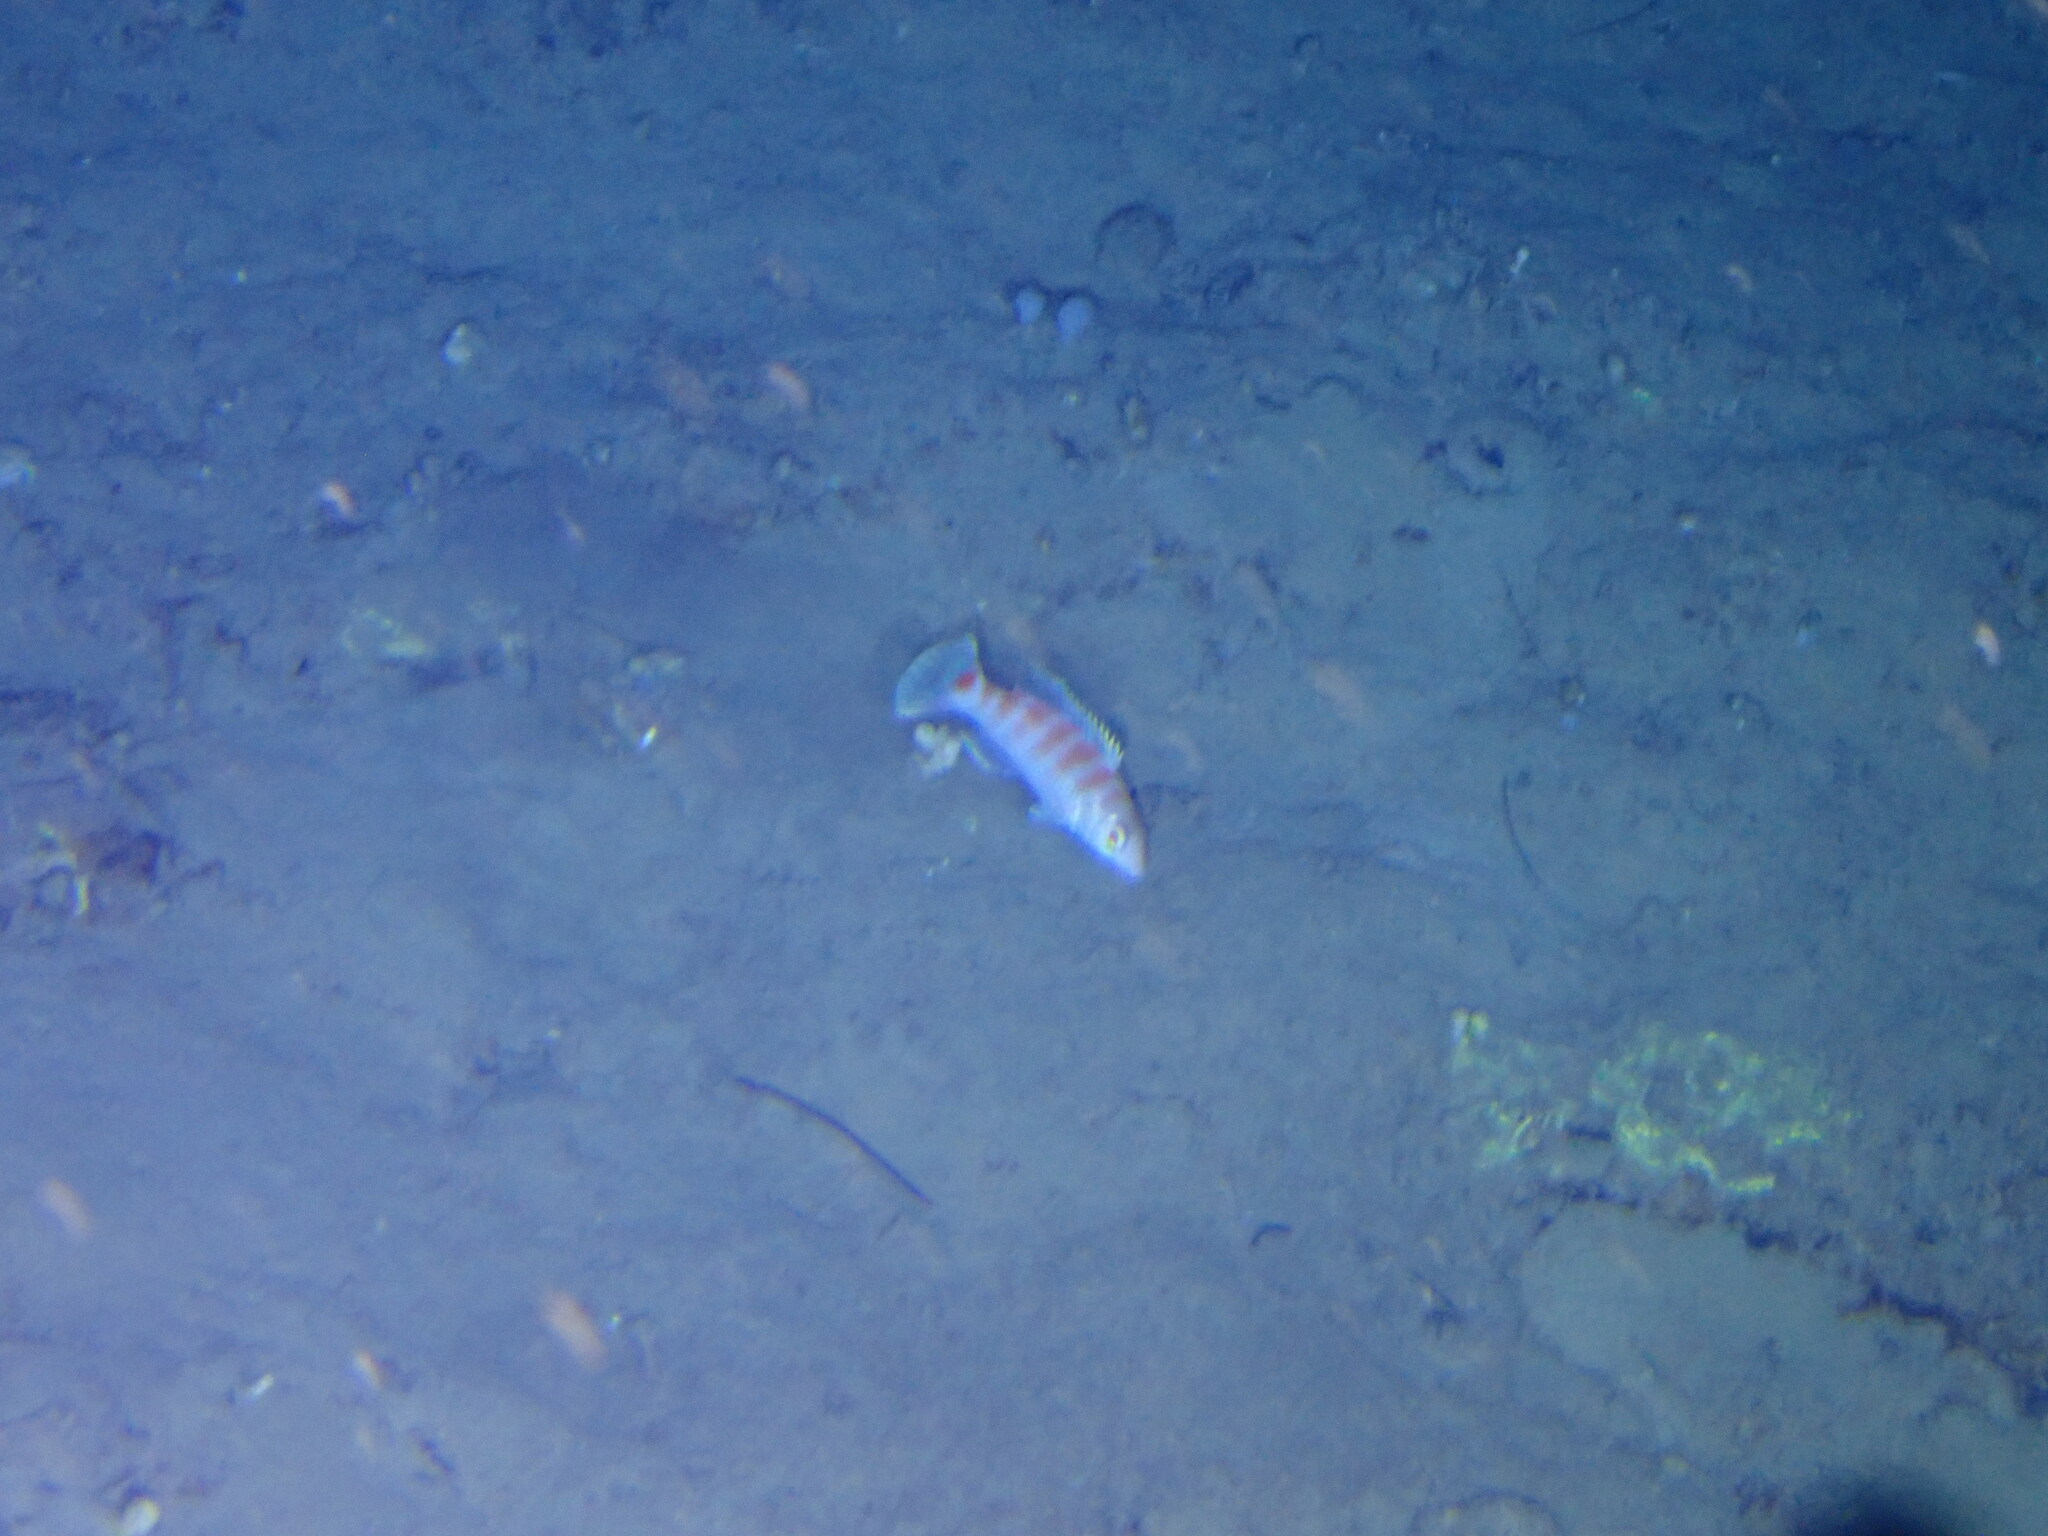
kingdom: Animalia
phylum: Chordata
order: Perciformes
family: Labridae
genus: Polylepion
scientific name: Polylepion gilmorei
